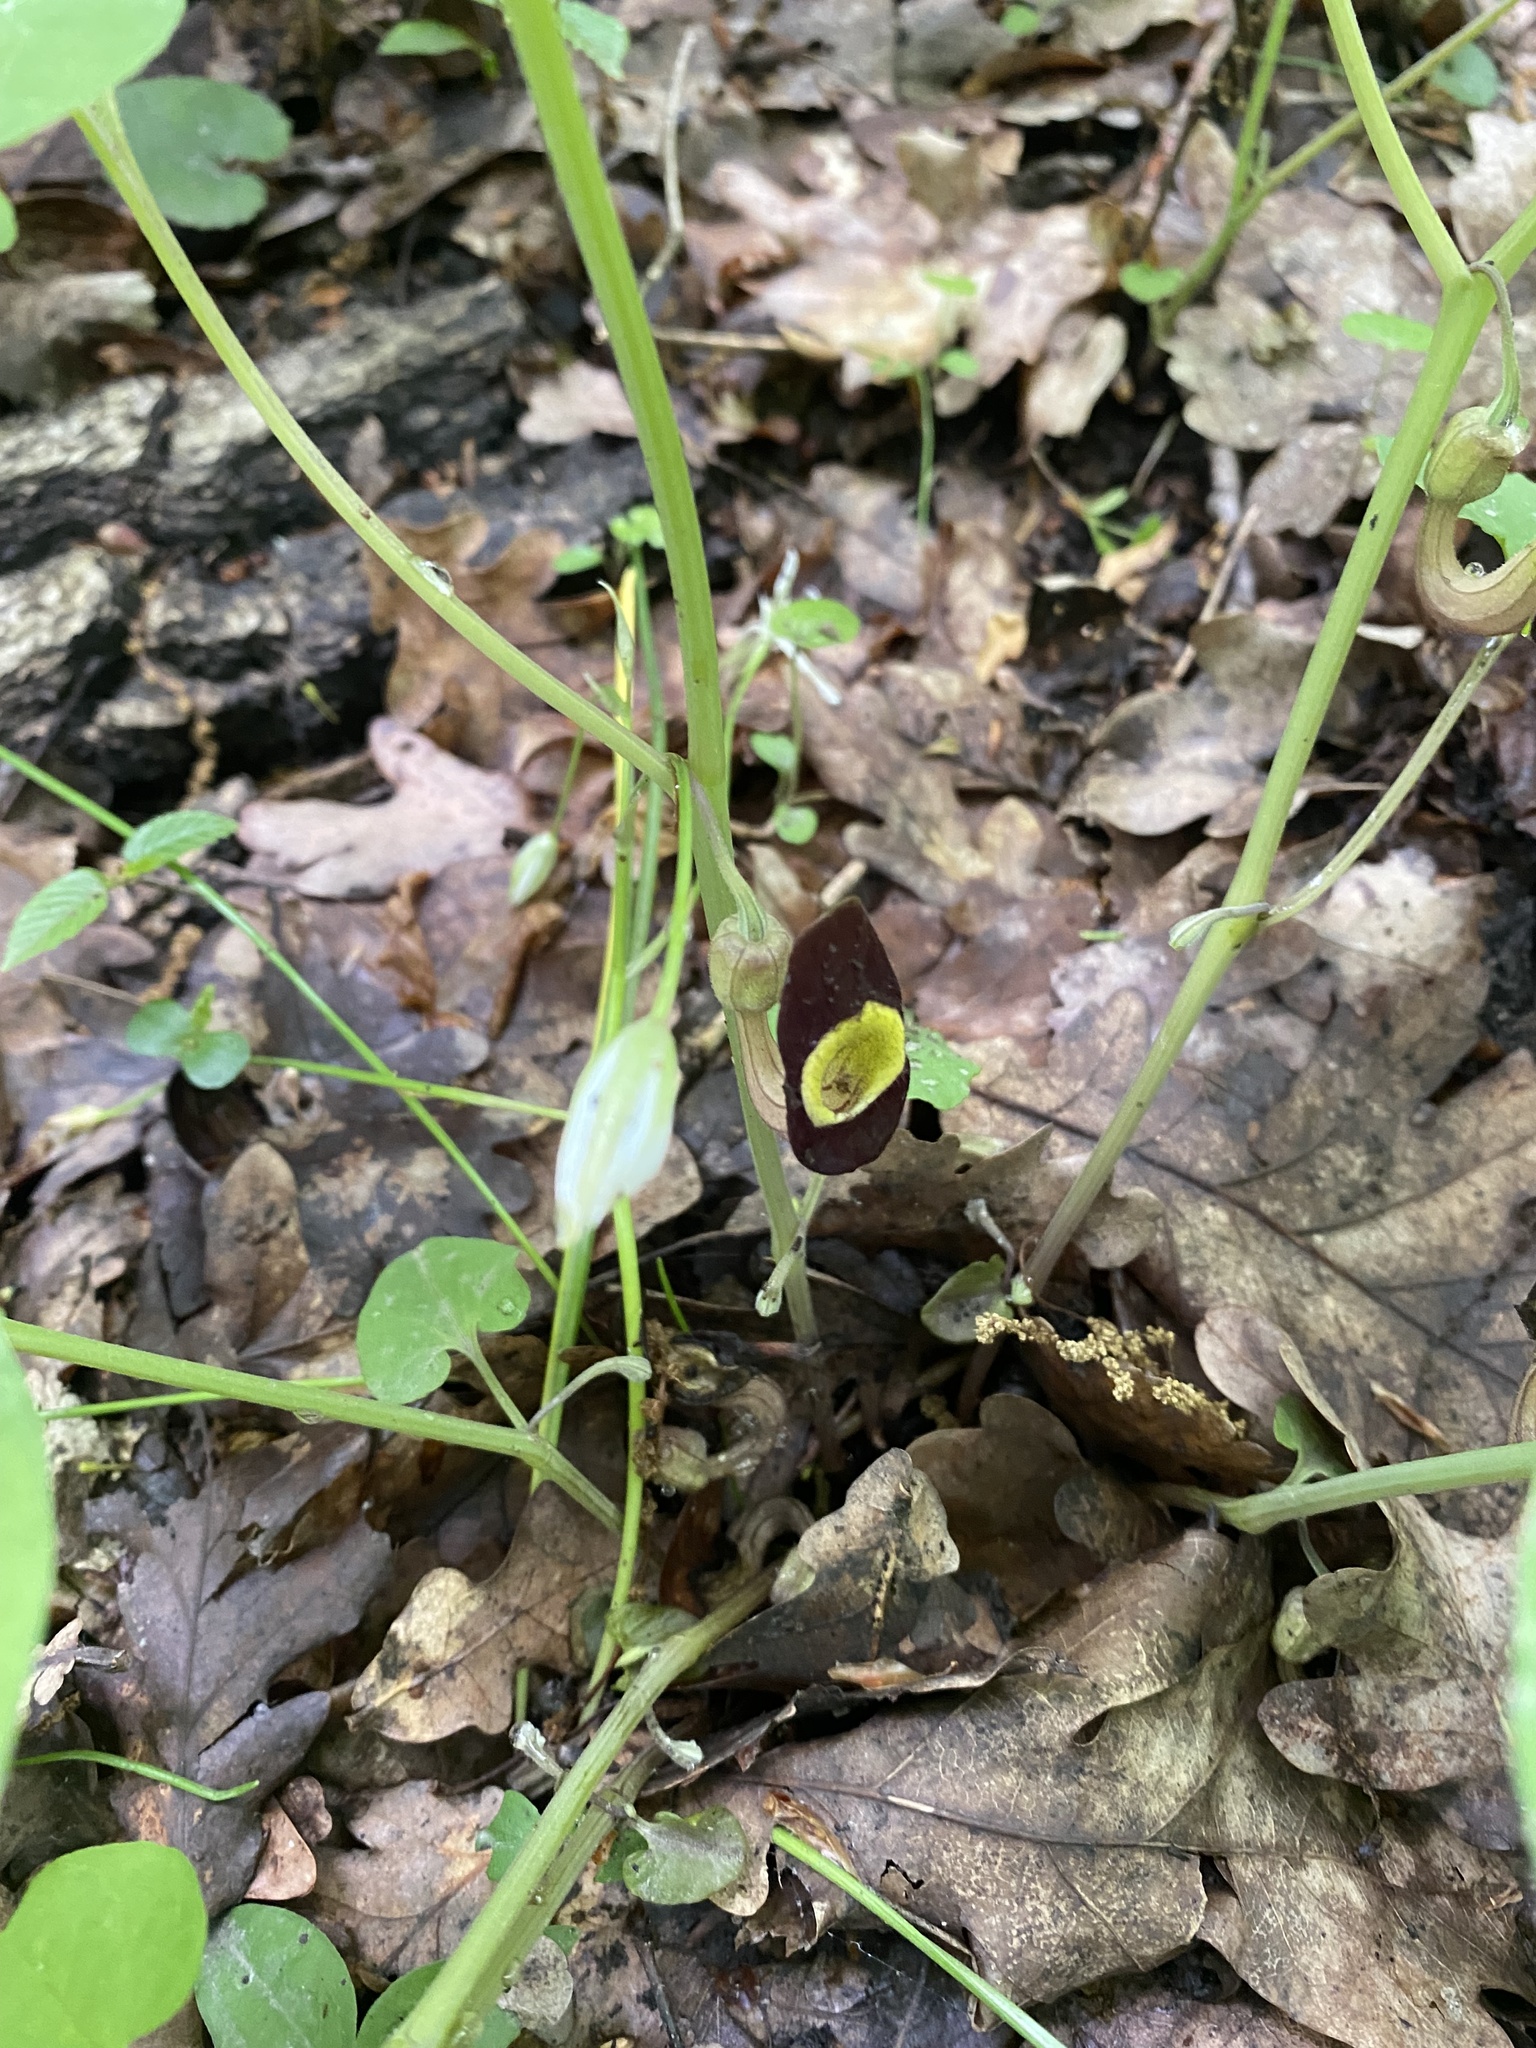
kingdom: Plantae
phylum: Tracheophyta
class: Magnoliopsida
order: Piperales
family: Aristolochiaceae
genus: Aristolochia
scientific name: Aristolochia steupii
